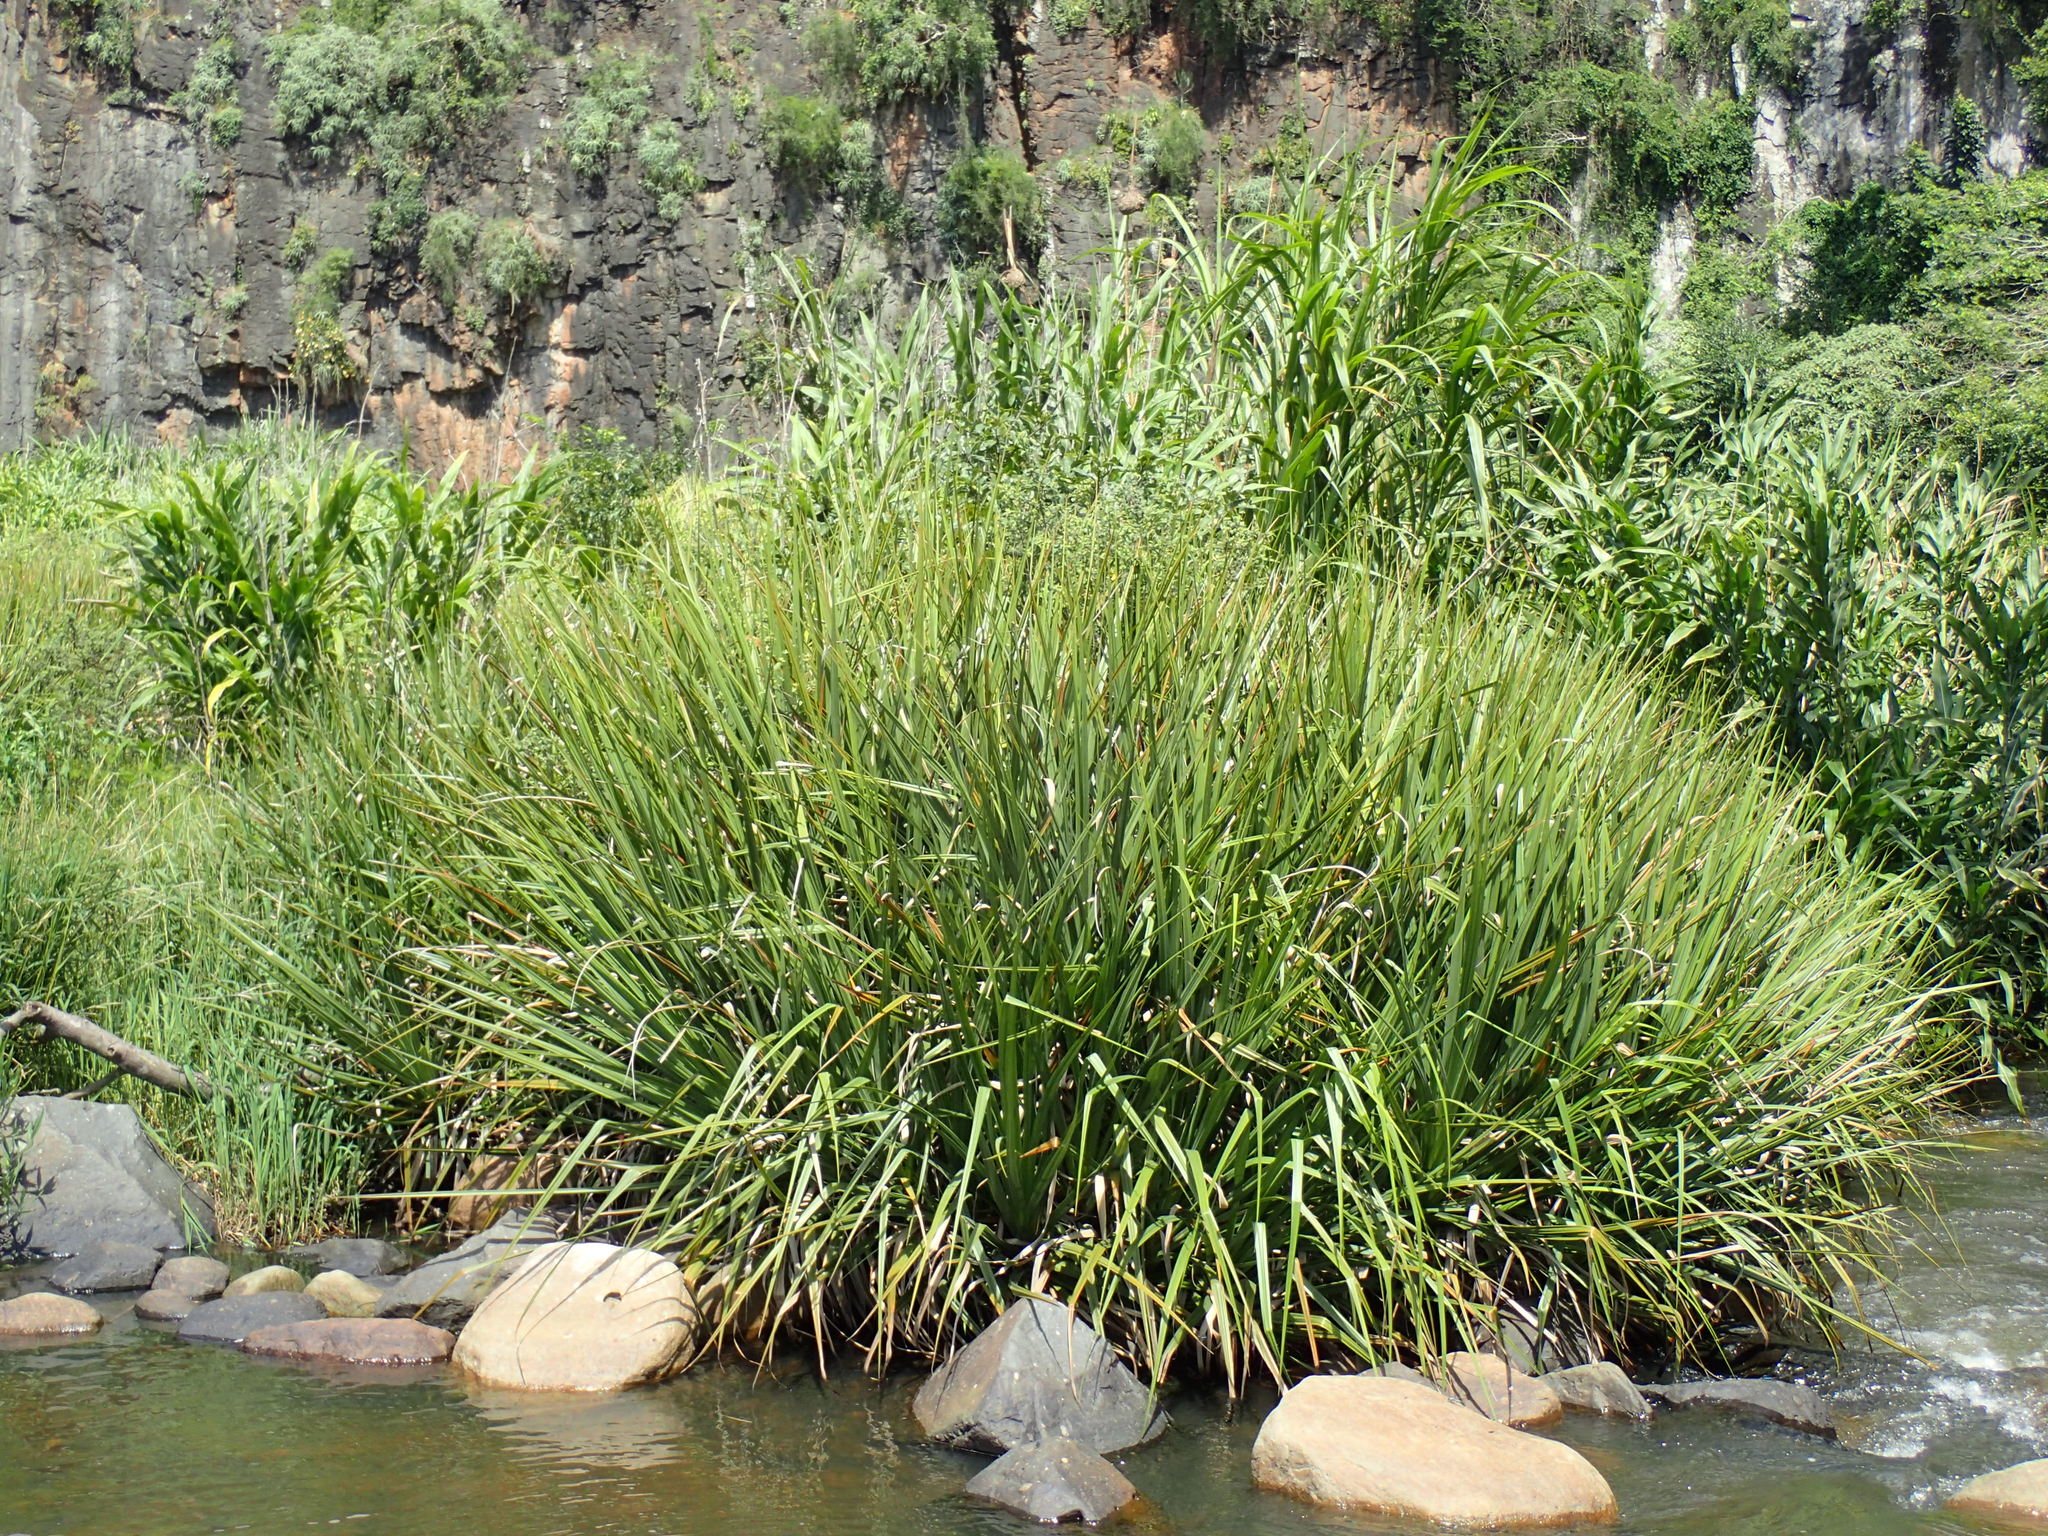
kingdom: Plantae
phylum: Tracheophyta
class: Liliopsida
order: Poales
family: Thurniaceae
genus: Prionium
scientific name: Prionium serratum
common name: Palmiet
